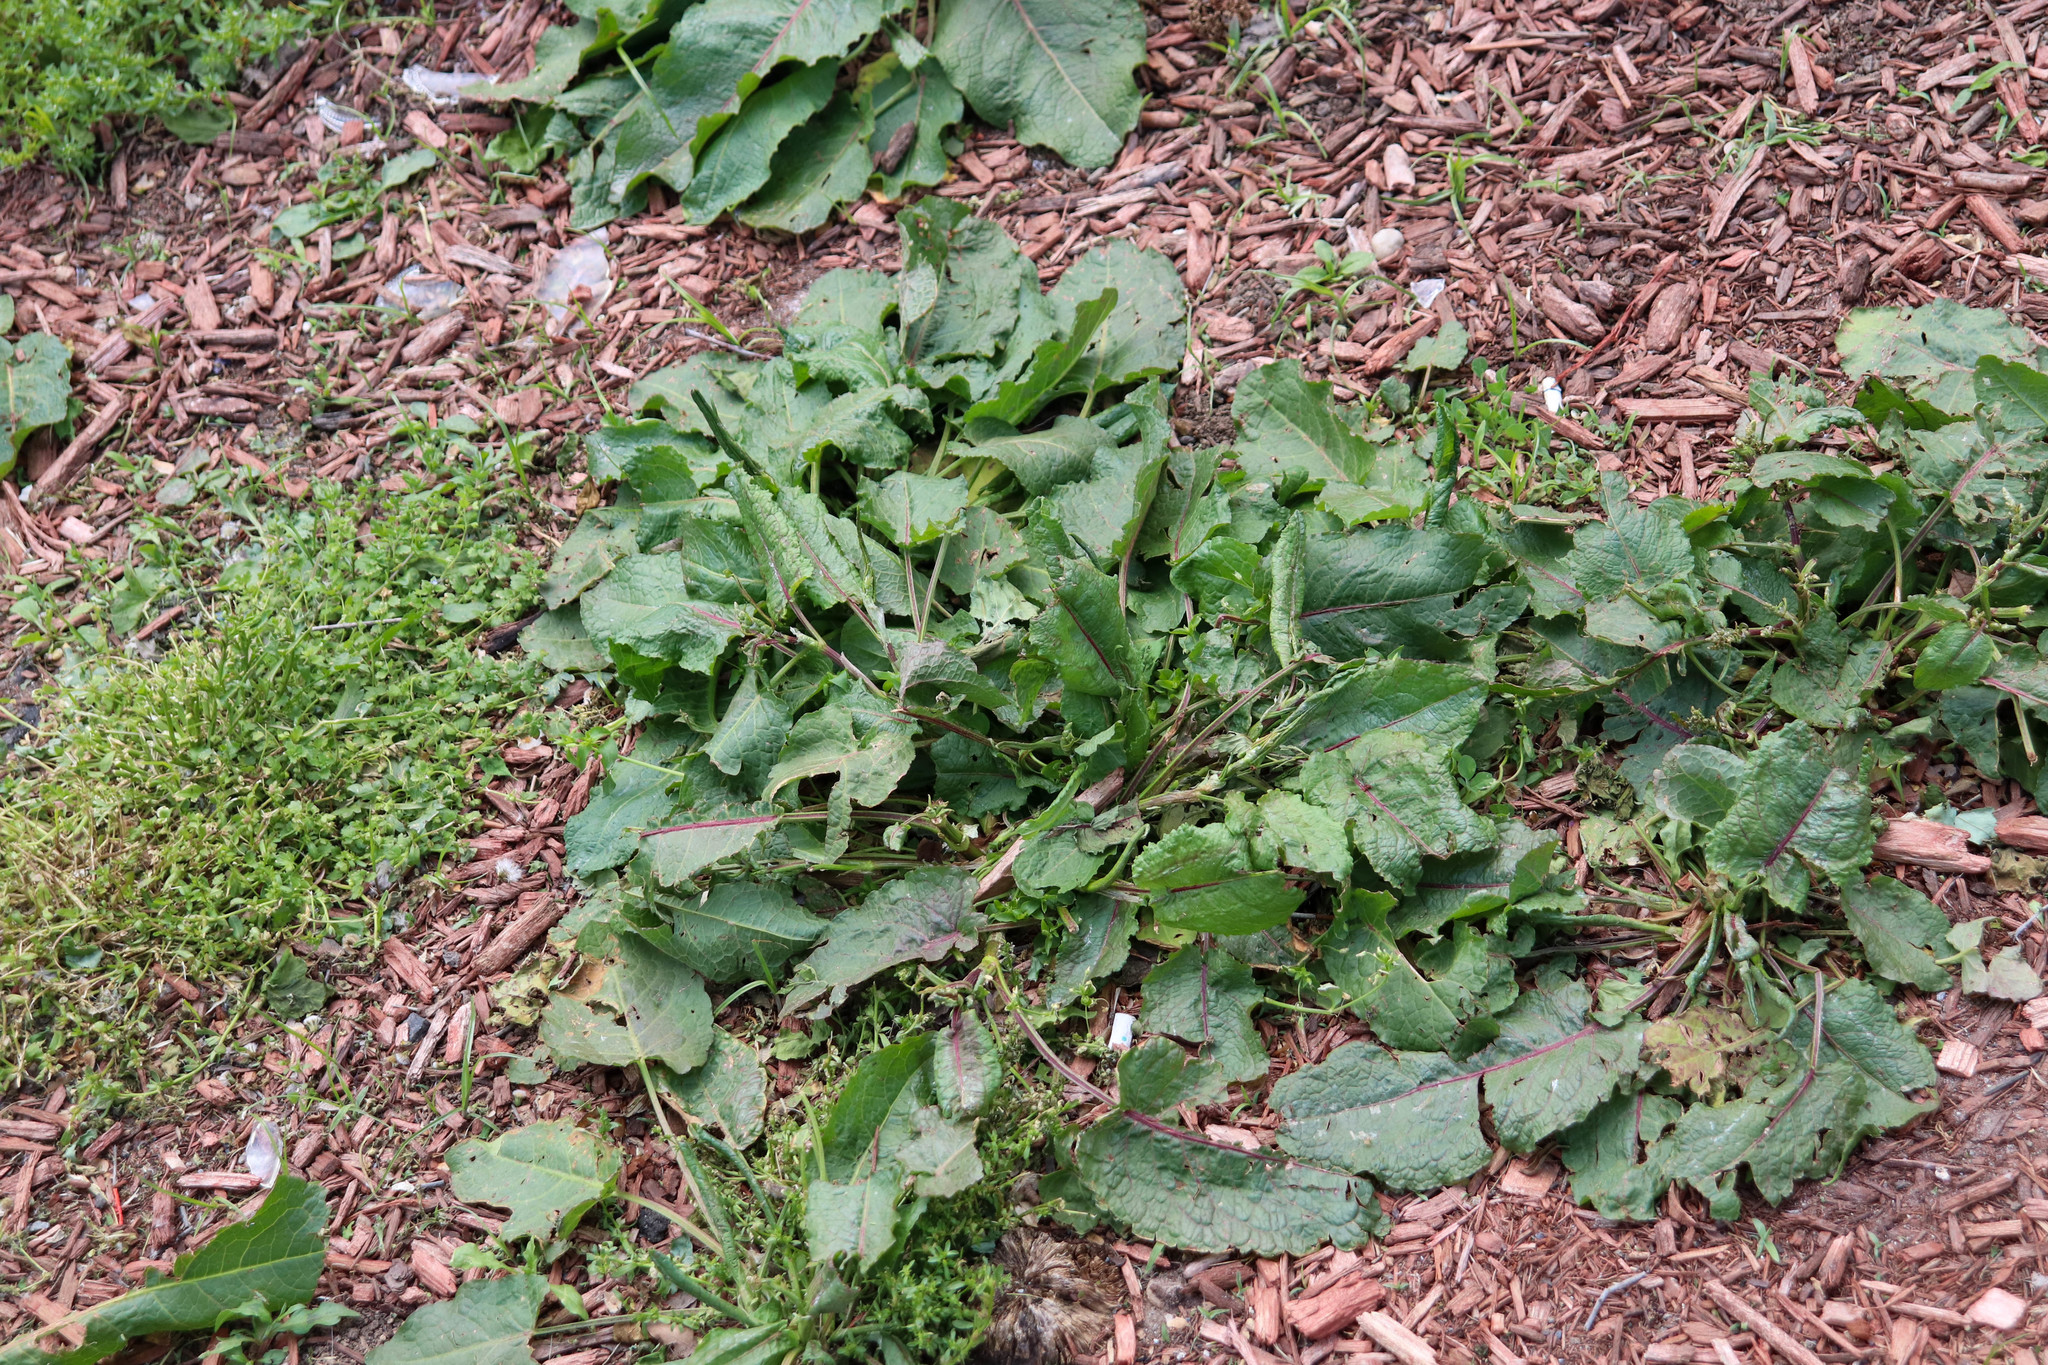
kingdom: Plantae
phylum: Tracheophyta
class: Magnoliopsida
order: Caryophyllales
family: Polygonaceae
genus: Rumex
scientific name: Rumex obtusifolius
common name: Bitter dock
